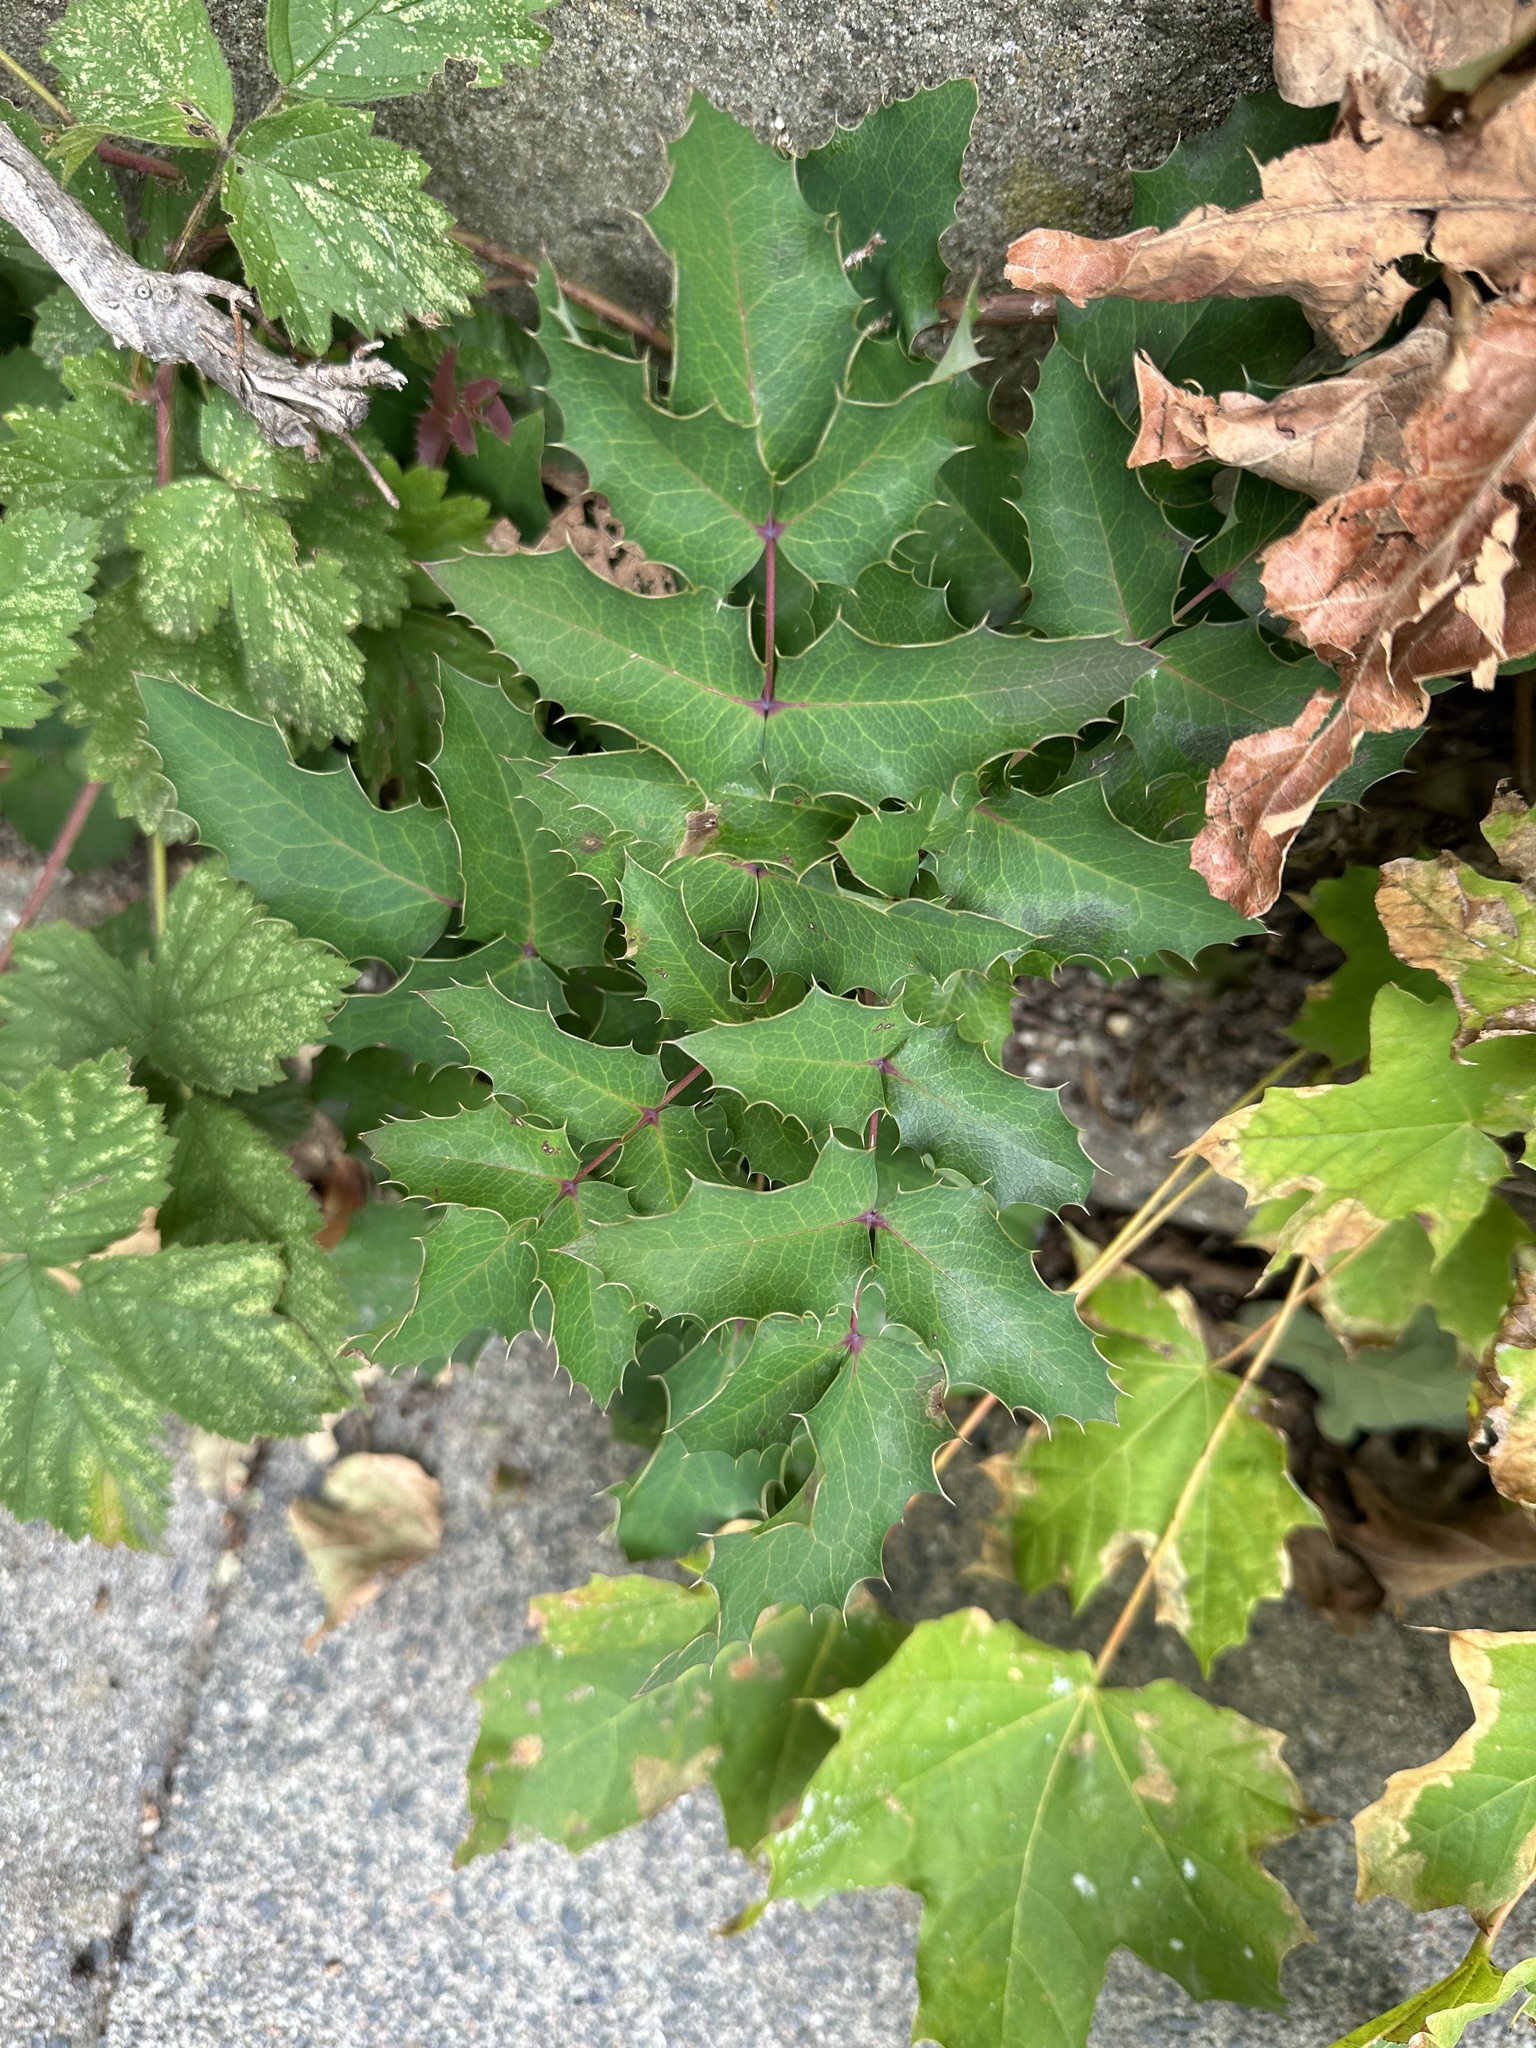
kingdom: Plantae
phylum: Tracheophyta
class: Magnoliopsida
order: Ranunculales
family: Berberidaceae
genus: Mahonia
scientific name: Mahonia aquifolium
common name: Oregon-grape
